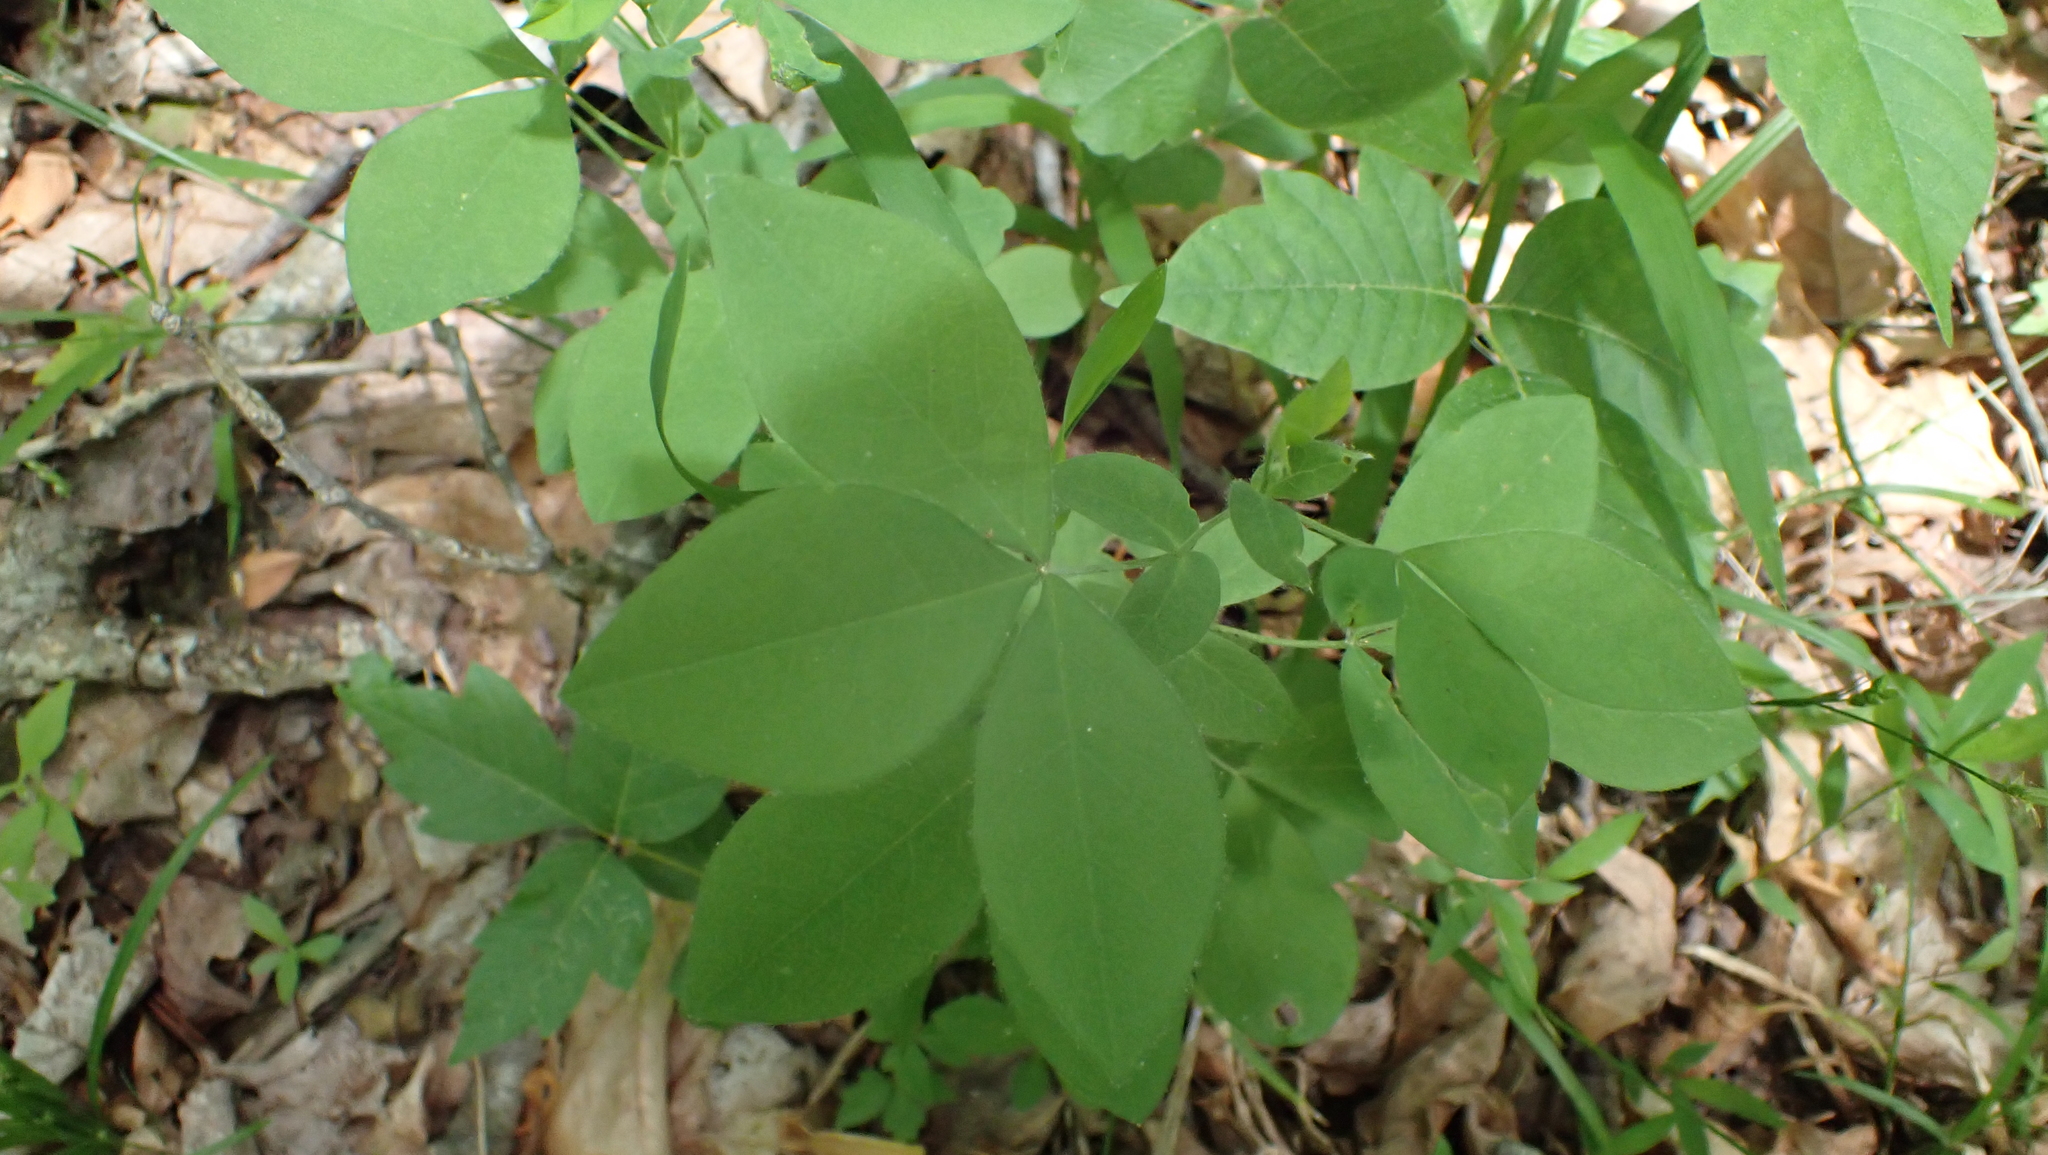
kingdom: Plantae
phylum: Tracheophyta
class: Magnoliopsida
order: Fabales
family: Fabaceae
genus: Thermopsis
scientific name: Thermopsis villosa
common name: Carolina-lupin
